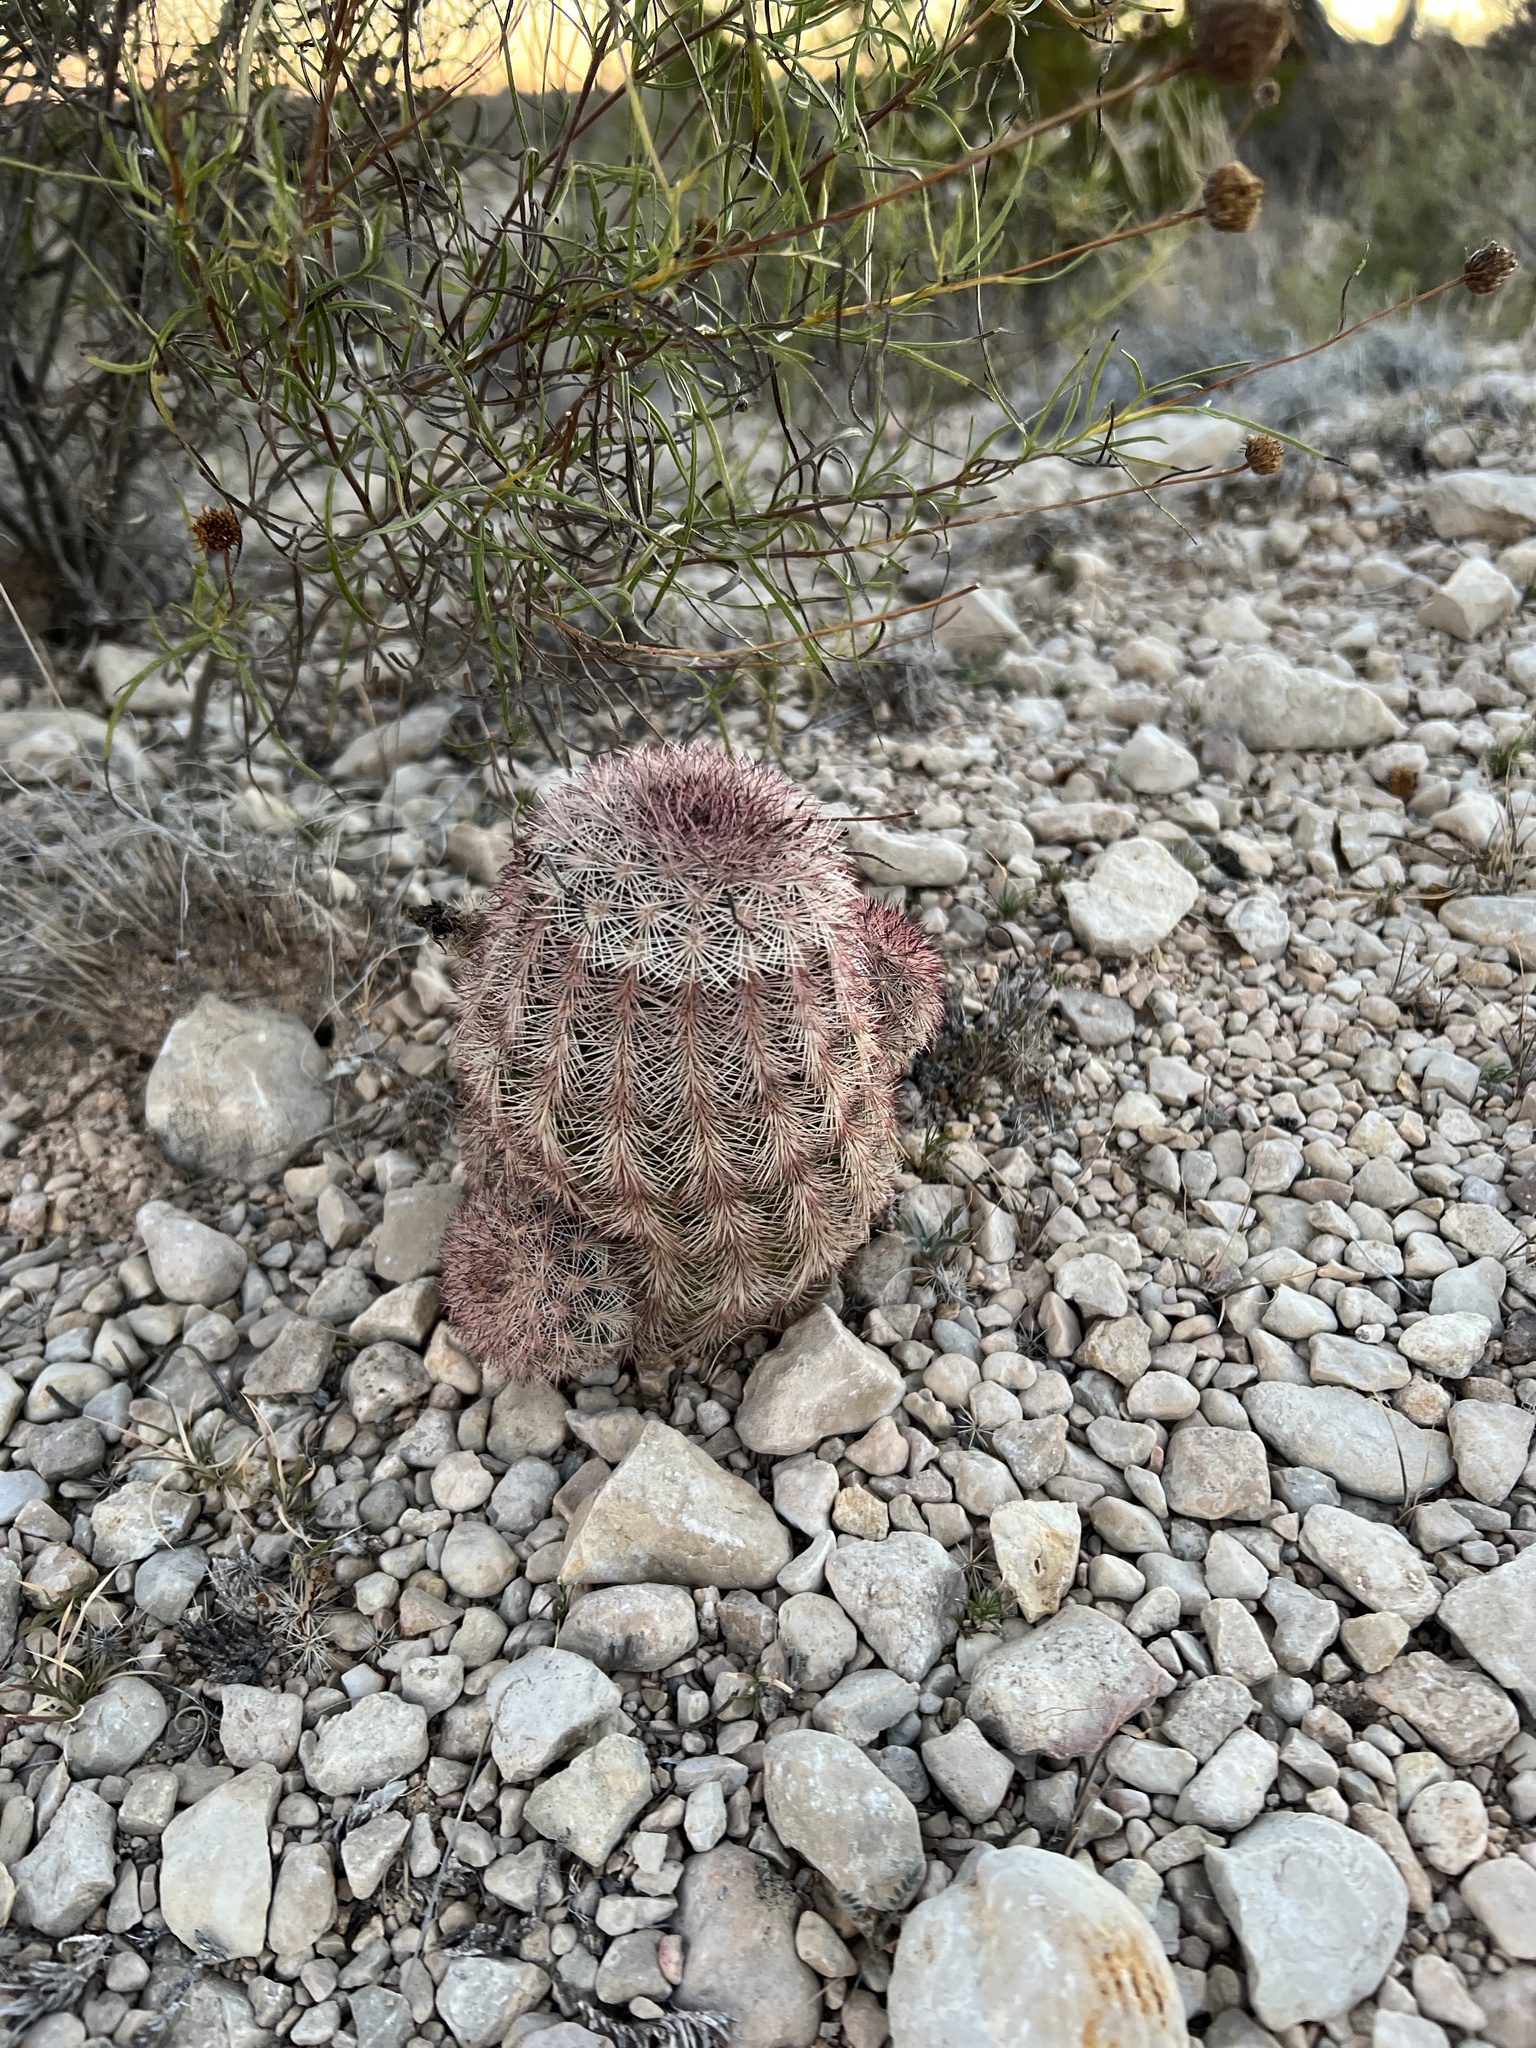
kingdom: Plantae
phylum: Tracheophyta
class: Magnoliopsida
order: Caryophyllales
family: Cactaceae
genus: Echinocereus
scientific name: Echinocereus dasyacanthus
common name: Spiny hedgehog cactus
